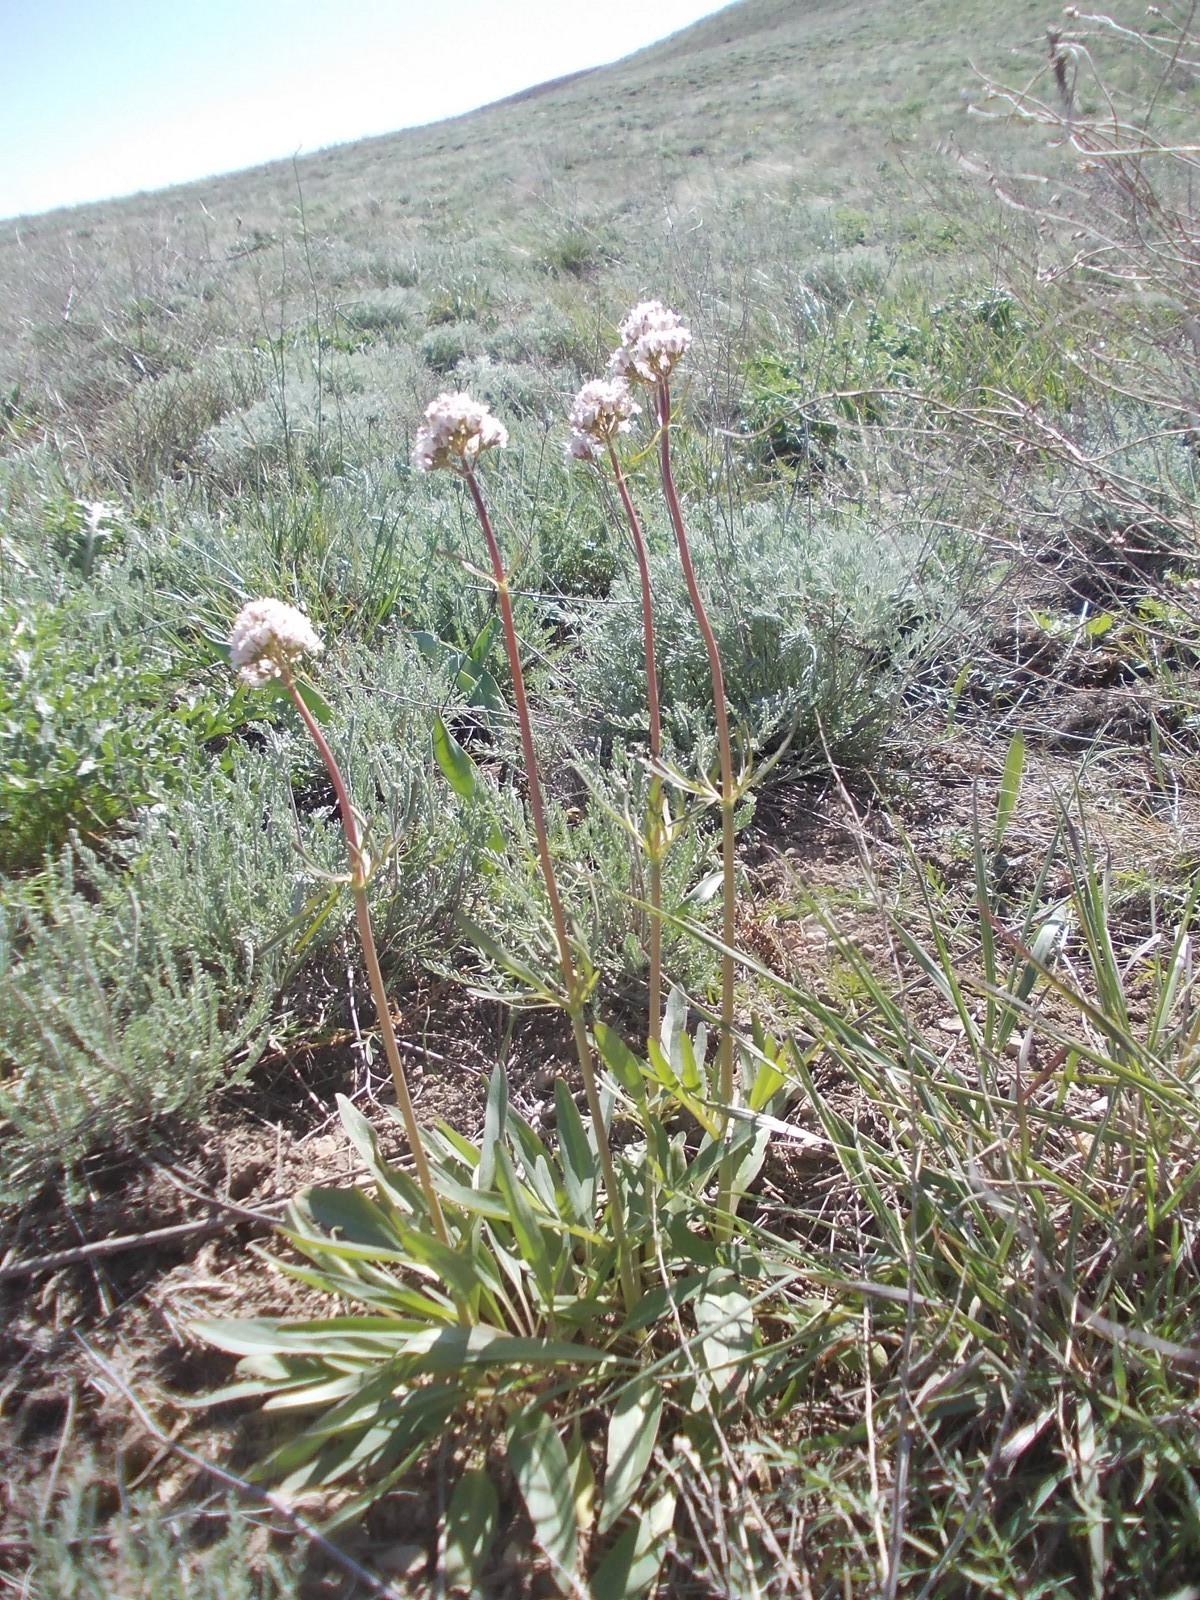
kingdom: Plantae
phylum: Tracheophyta
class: Magnoliopsida
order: Dipsacales
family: Caprifoliaceae
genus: Valeriana
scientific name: Valeriana tuberosa
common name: Tuberous valerian
